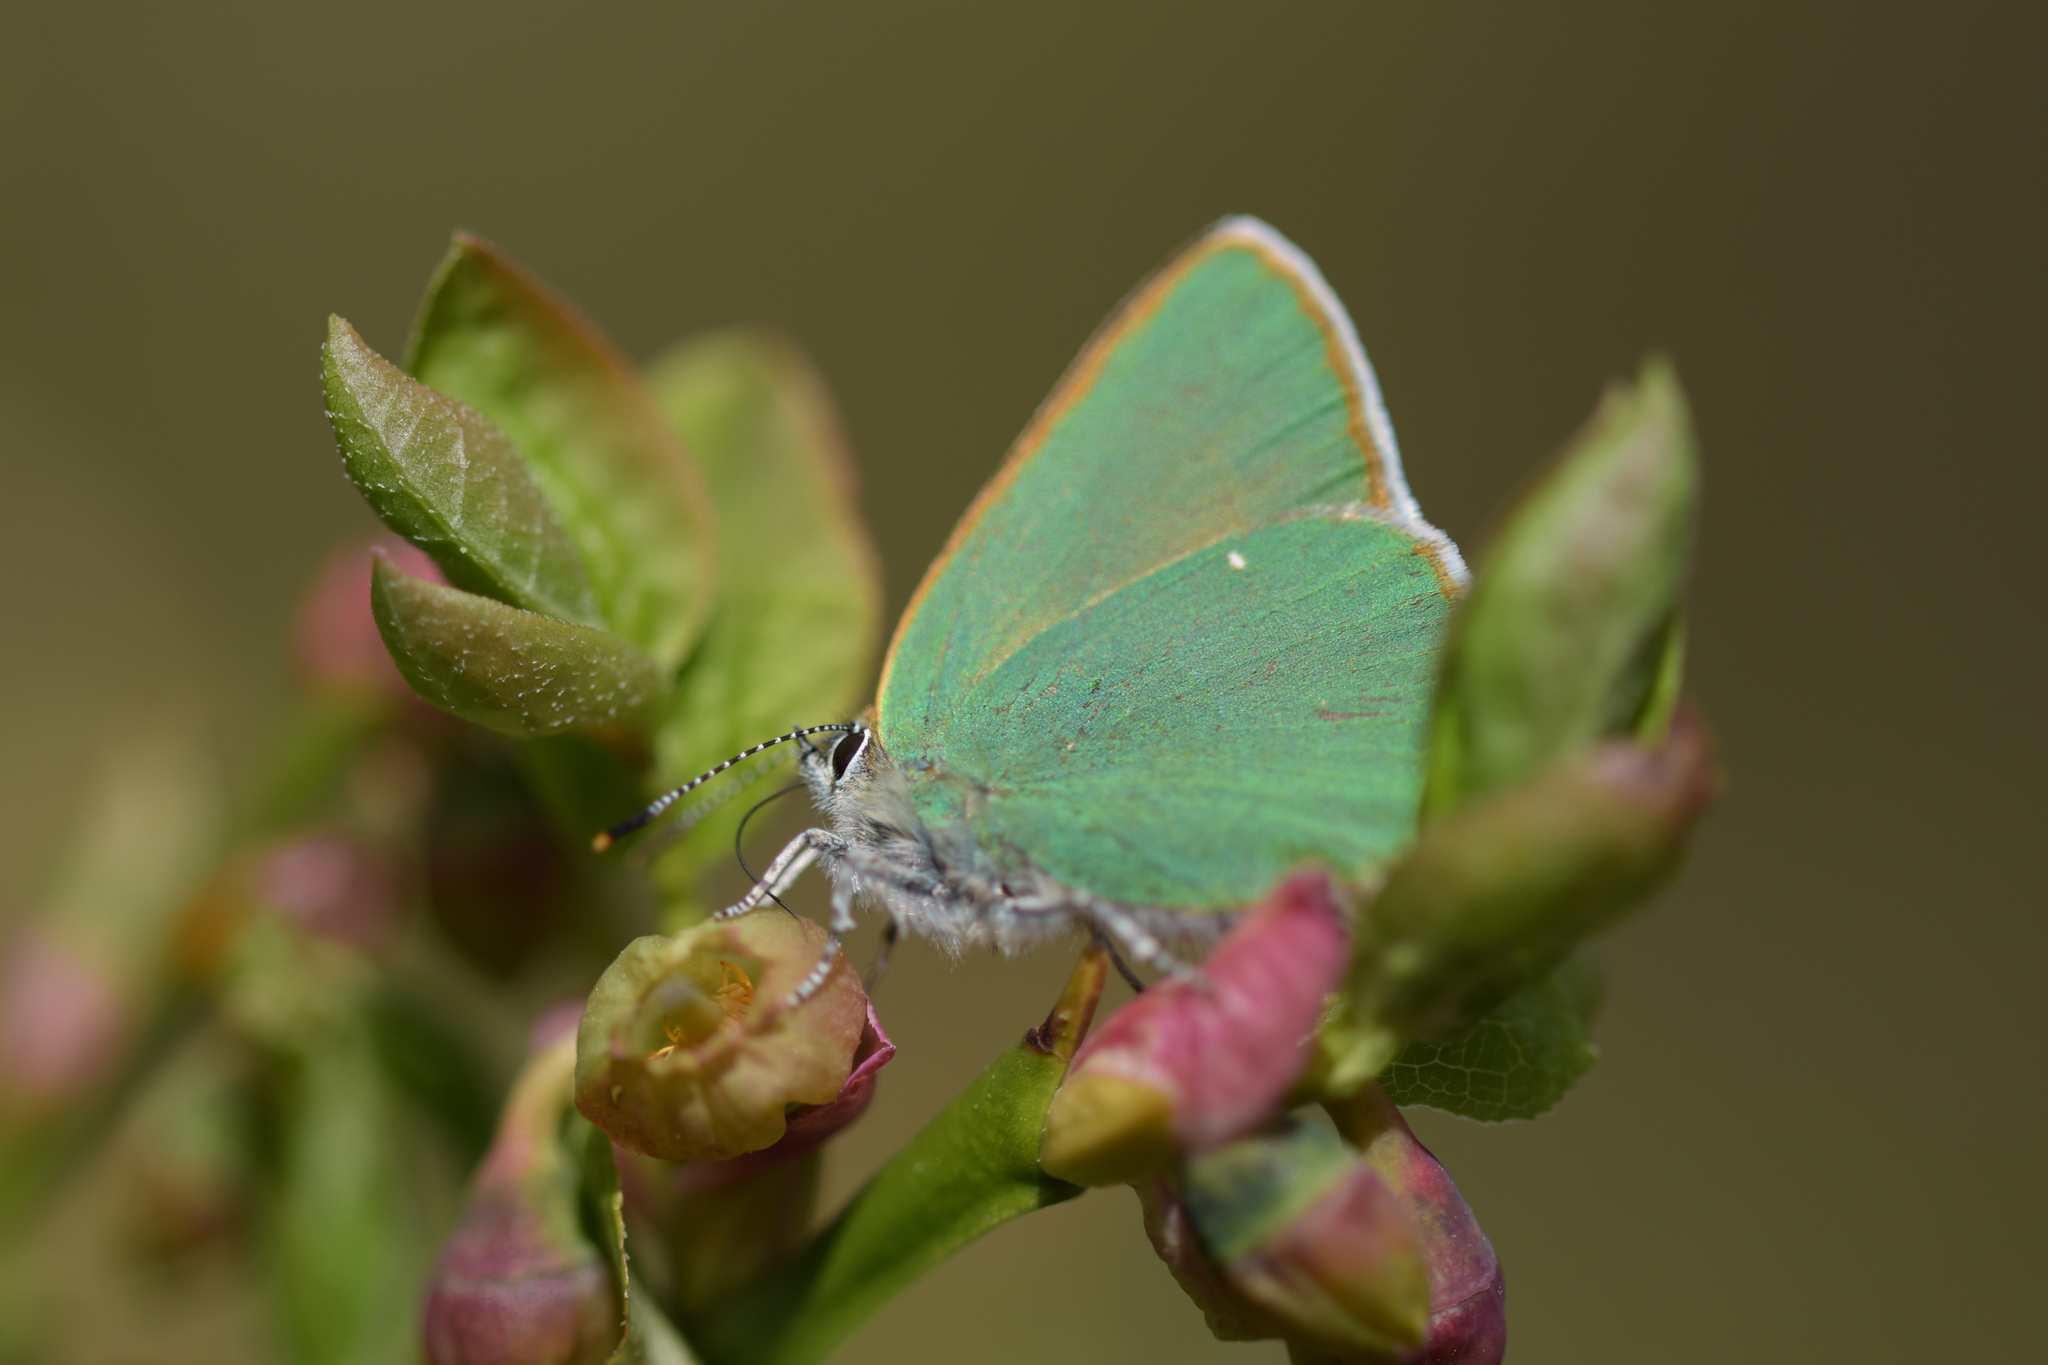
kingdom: Animalia
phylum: Arthropoda
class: Insecta
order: Lepidoptera
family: Lycaenidae
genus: Callophrys
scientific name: Callophrys rubi
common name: Green hairstreak
